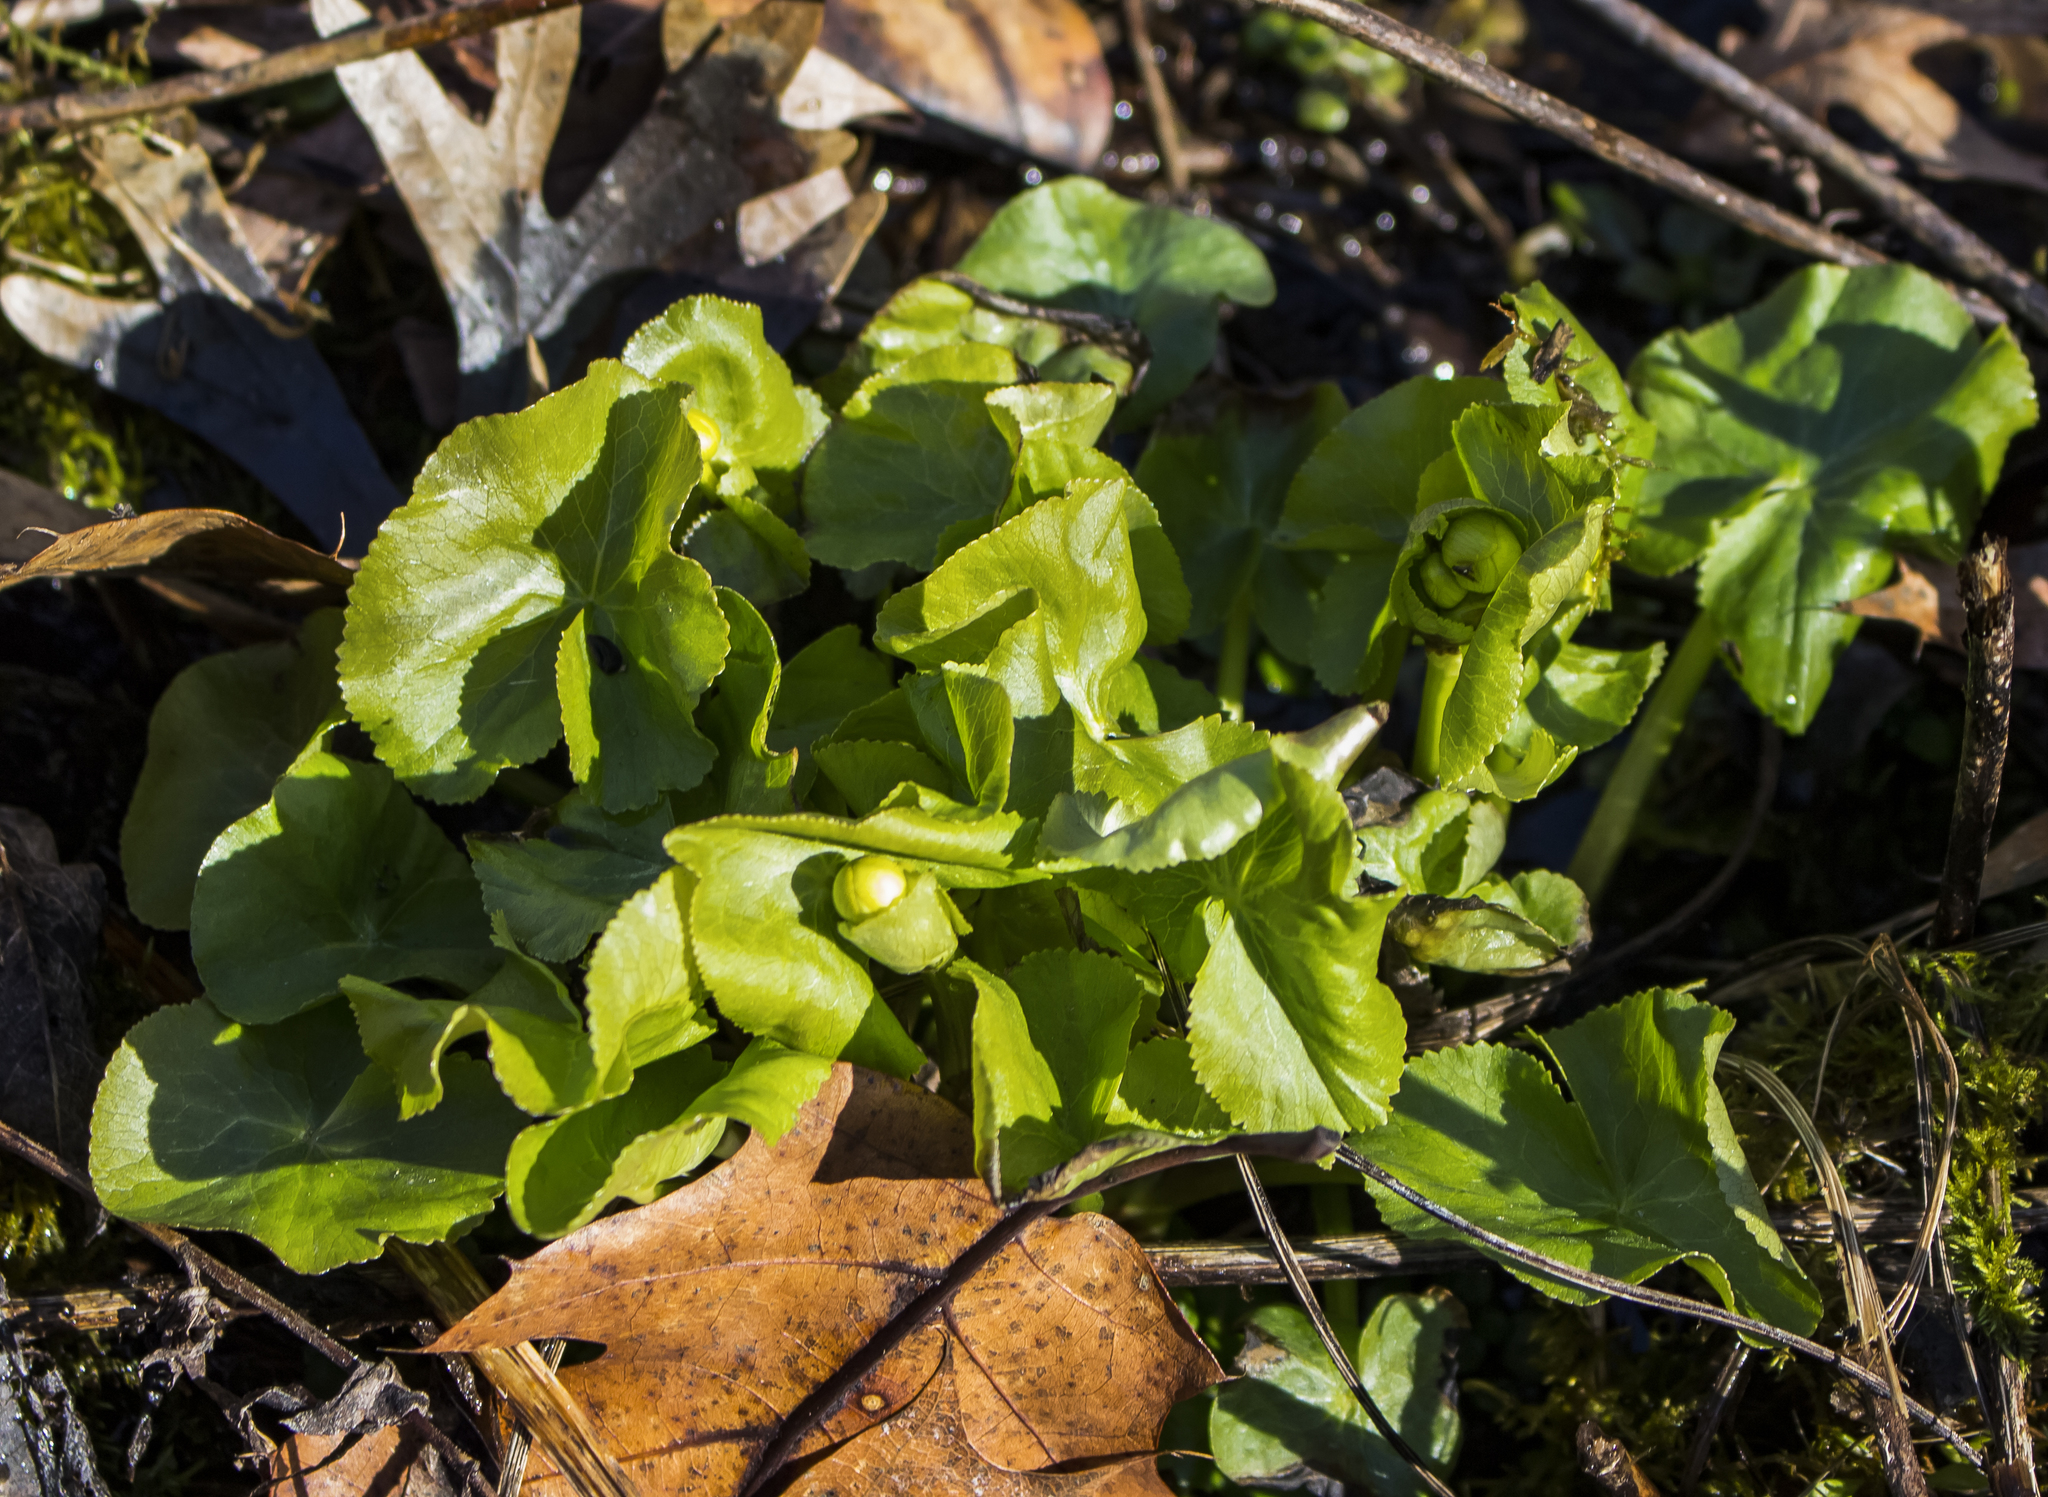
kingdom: Plantae
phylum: Tracheophyta
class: Magnoliopsida
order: Ranunculales
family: Ranunculaceae
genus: Caltha
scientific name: Caltha palustris
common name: Marsh marigold
